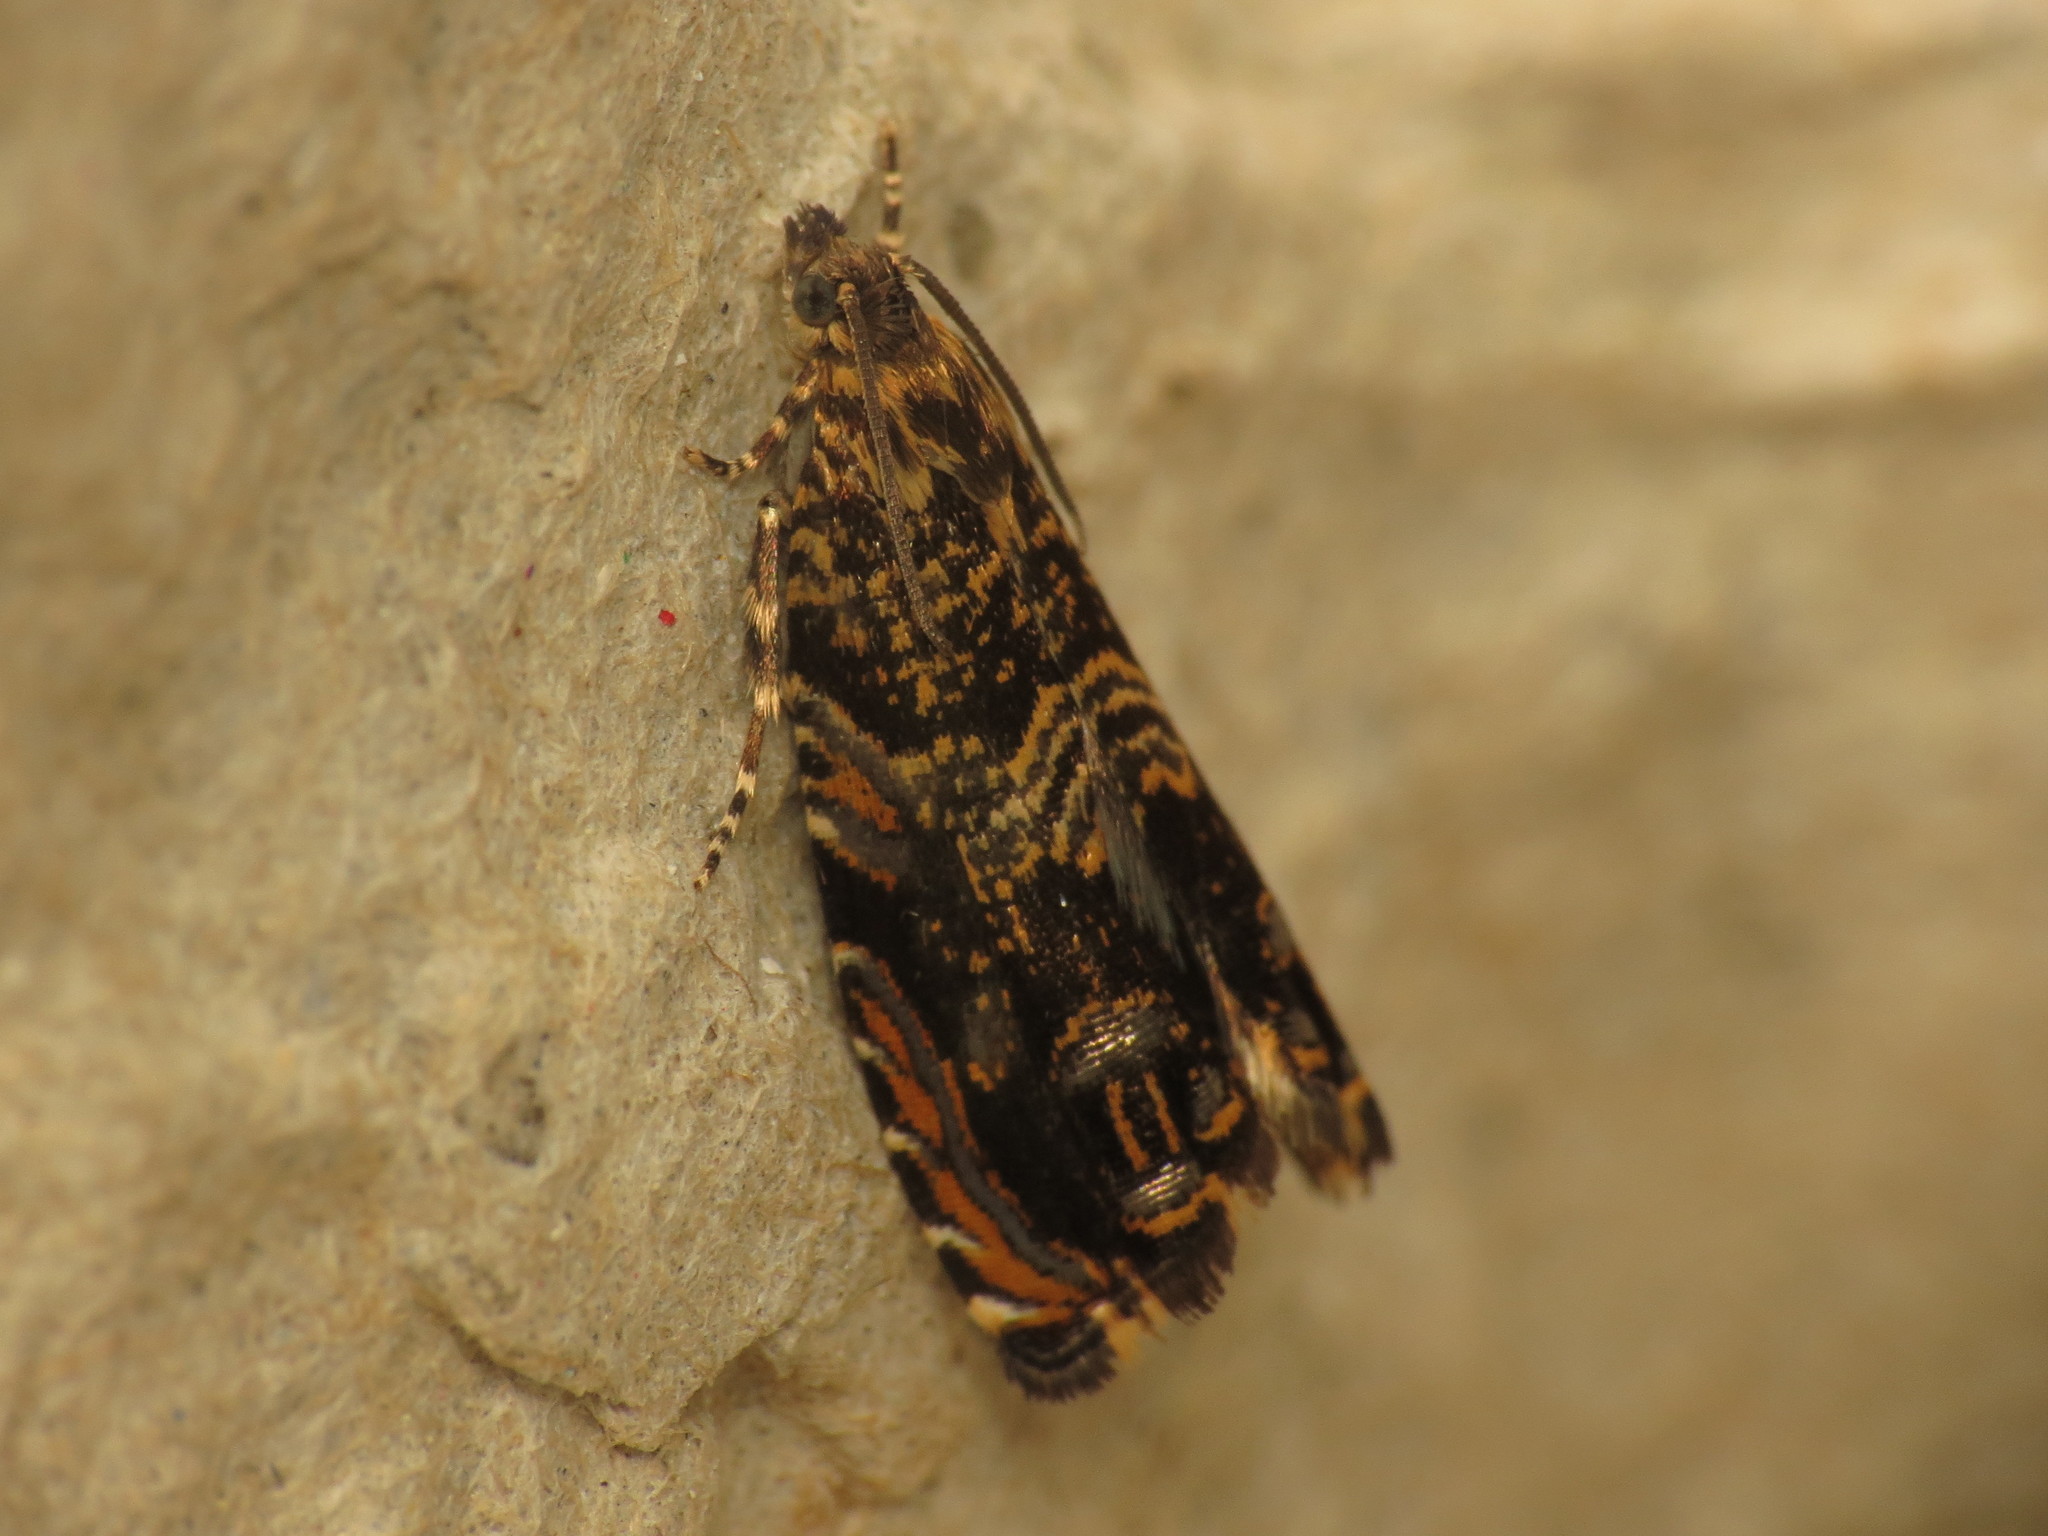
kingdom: Animalia
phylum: Arthropoda
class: Insecta
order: Lepidoptera
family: Tortricidae
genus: Enarmonia
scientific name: Enarmonia formosana
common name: Cherry bark tortrix
